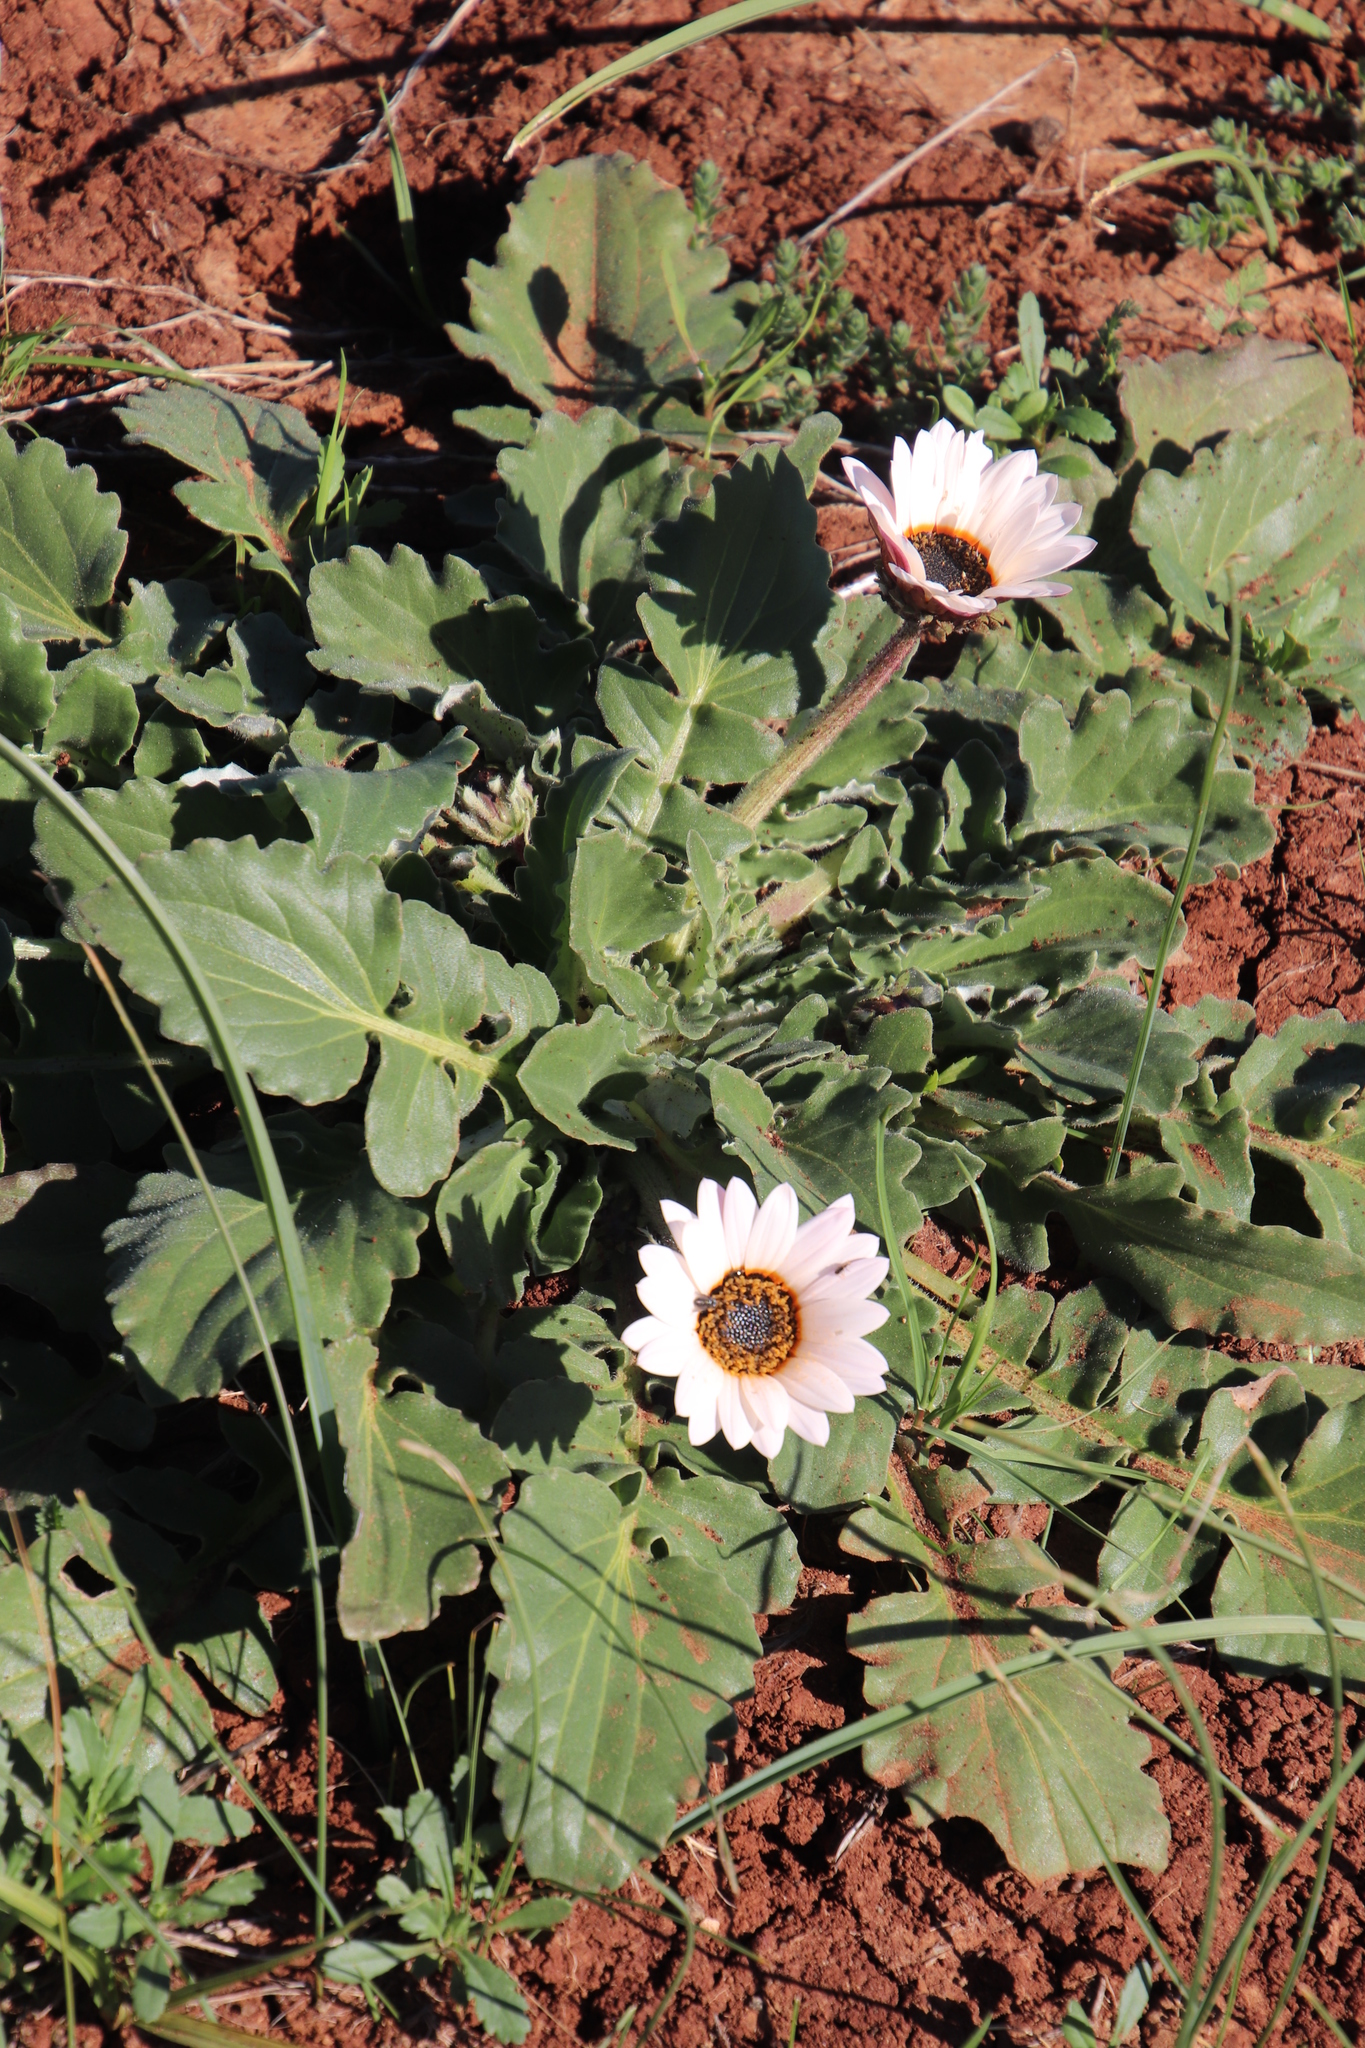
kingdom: Plantae
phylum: Tracheophyta
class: Magnoliopsida
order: Asterales
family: Asteraceae
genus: Arctotis
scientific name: Arctotis acaulis
